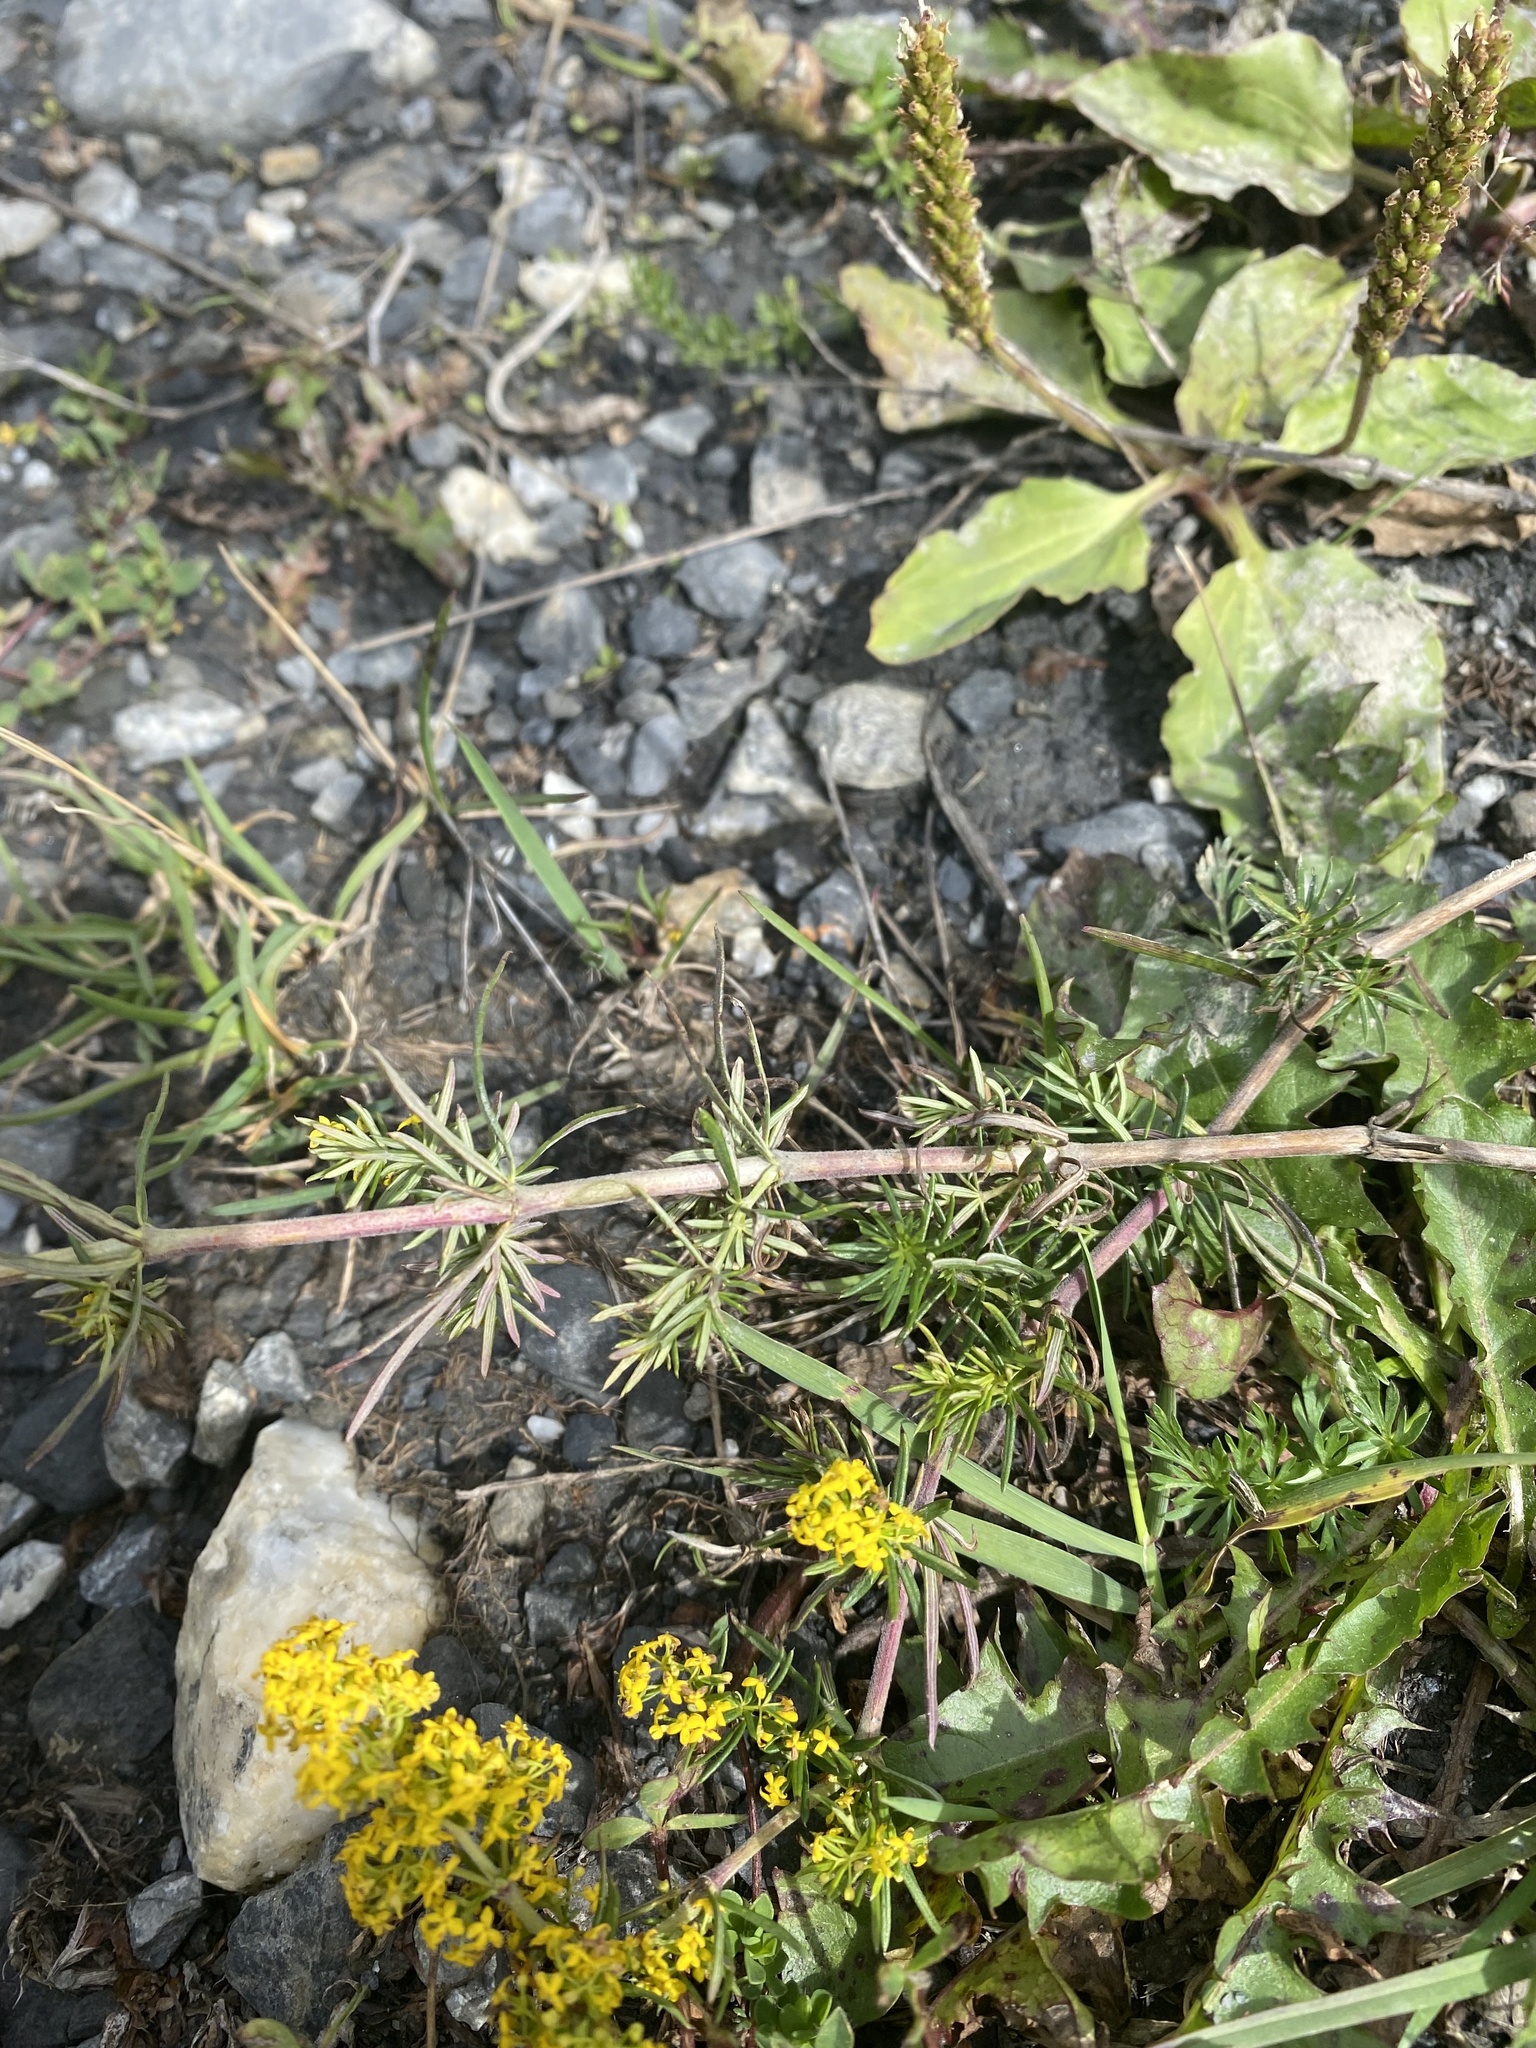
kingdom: Plantae
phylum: Tracheophyta
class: Magnoliopsida
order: Gentianales
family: Rubiaceae
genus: Galium
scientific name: Galium verum
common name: Lady's bedstraw
